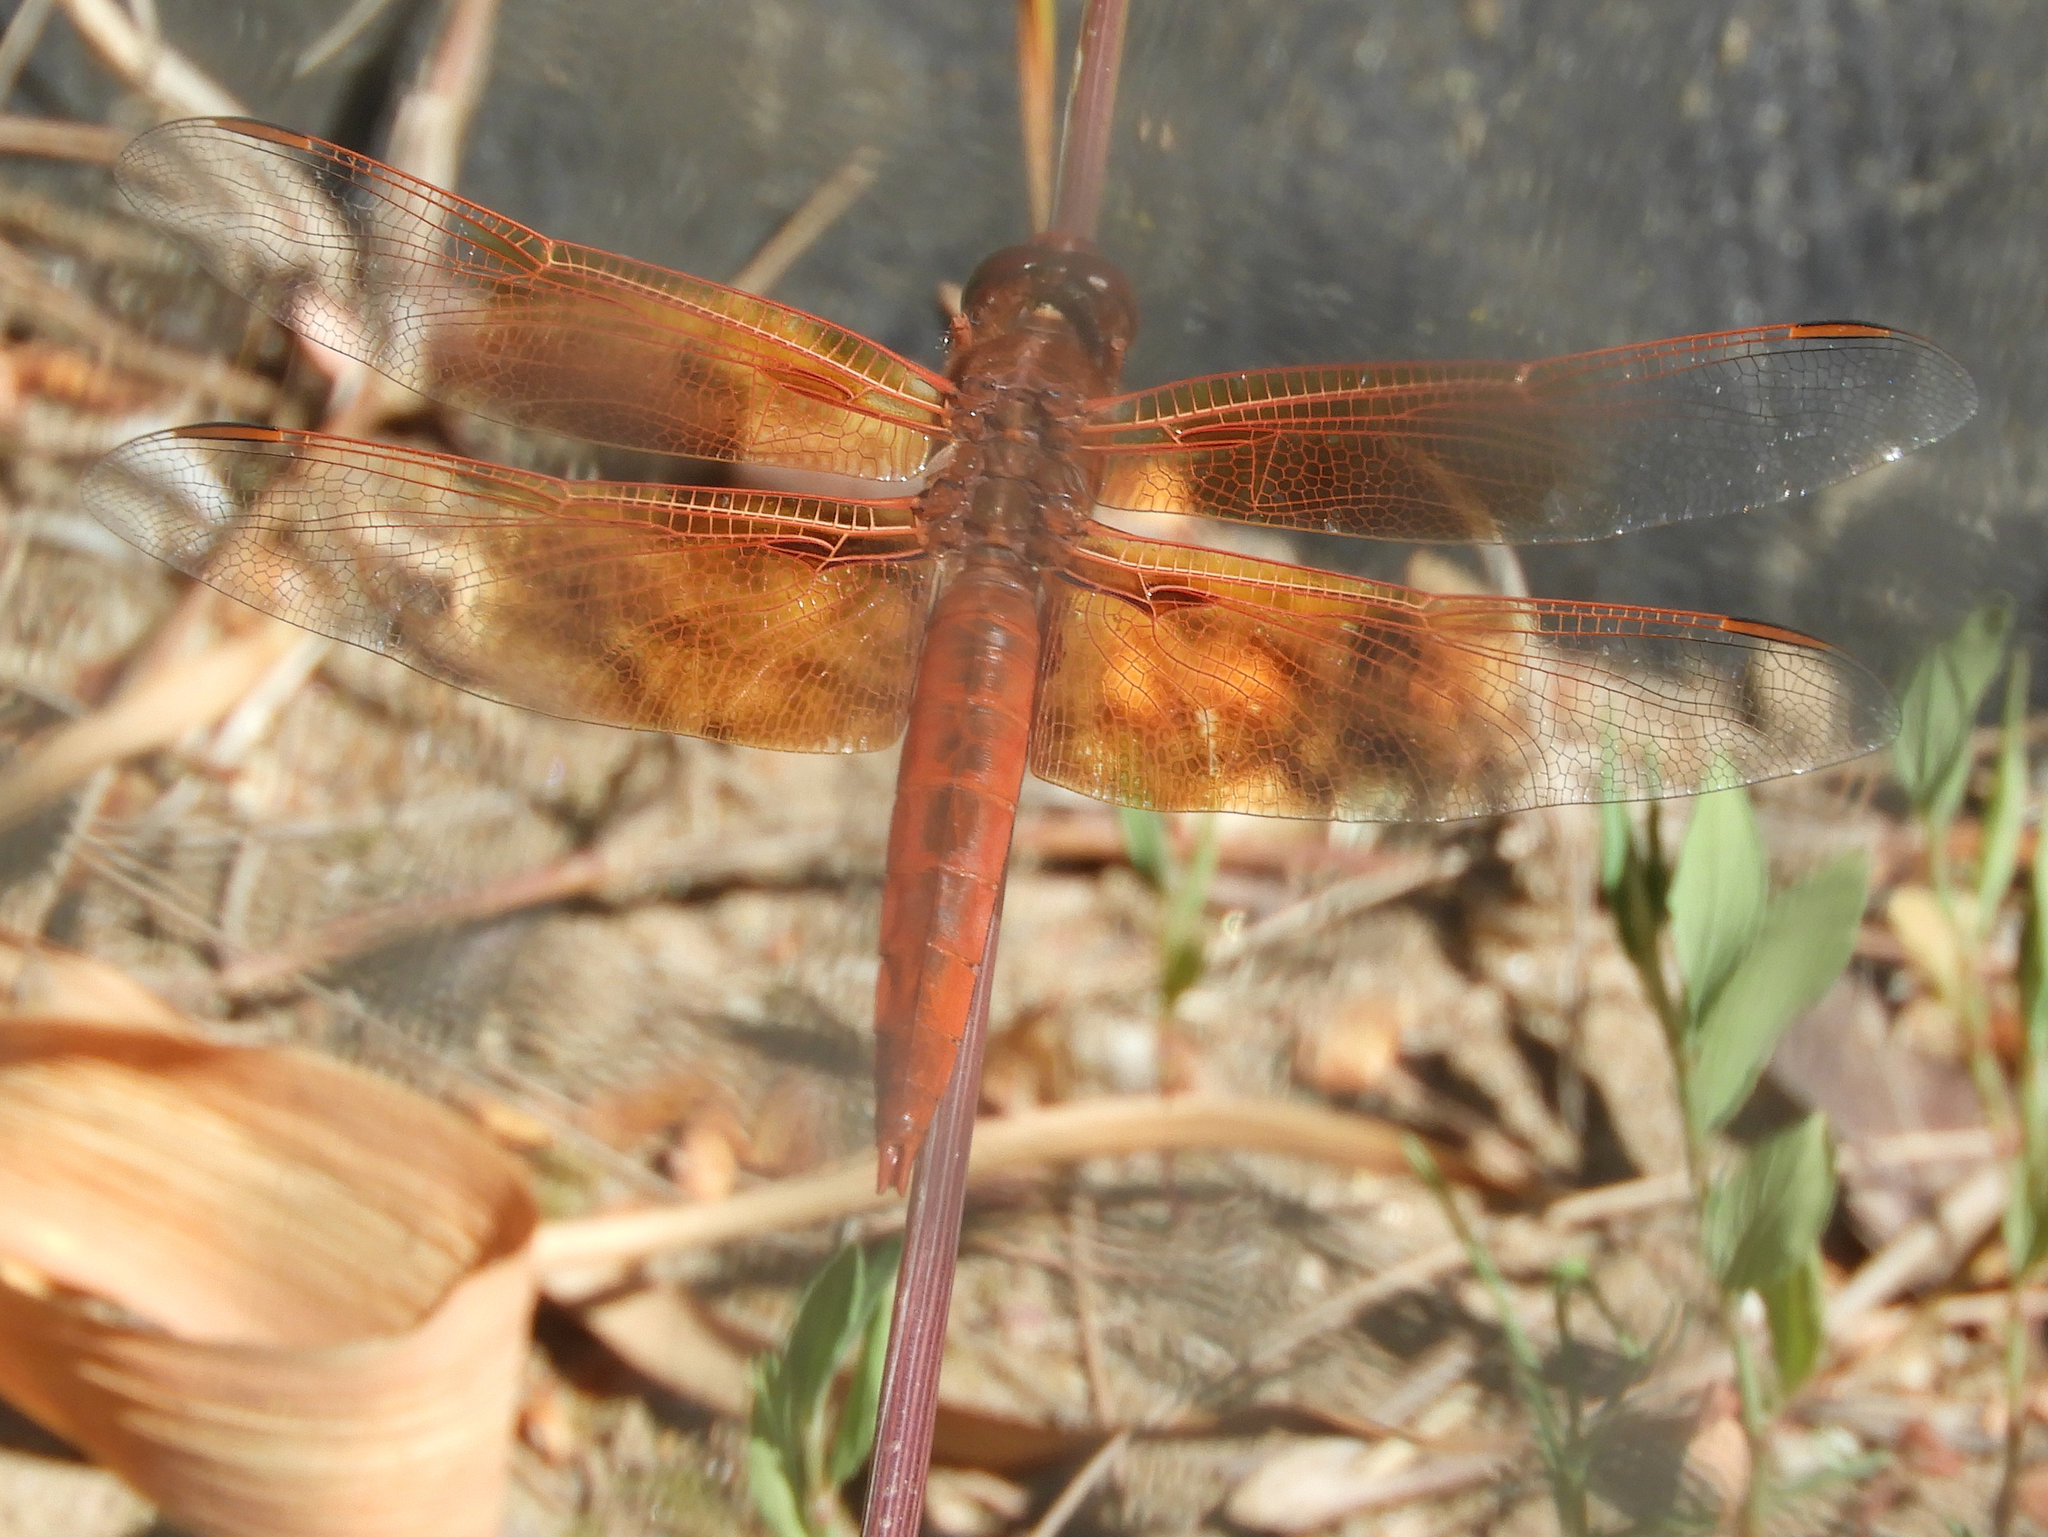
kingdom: Animalia
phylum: Arthropoda
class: Insecta
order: Odonata
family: Libellulidae
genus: Libellula
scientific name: Libellula saturata
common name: Flame skimmer
